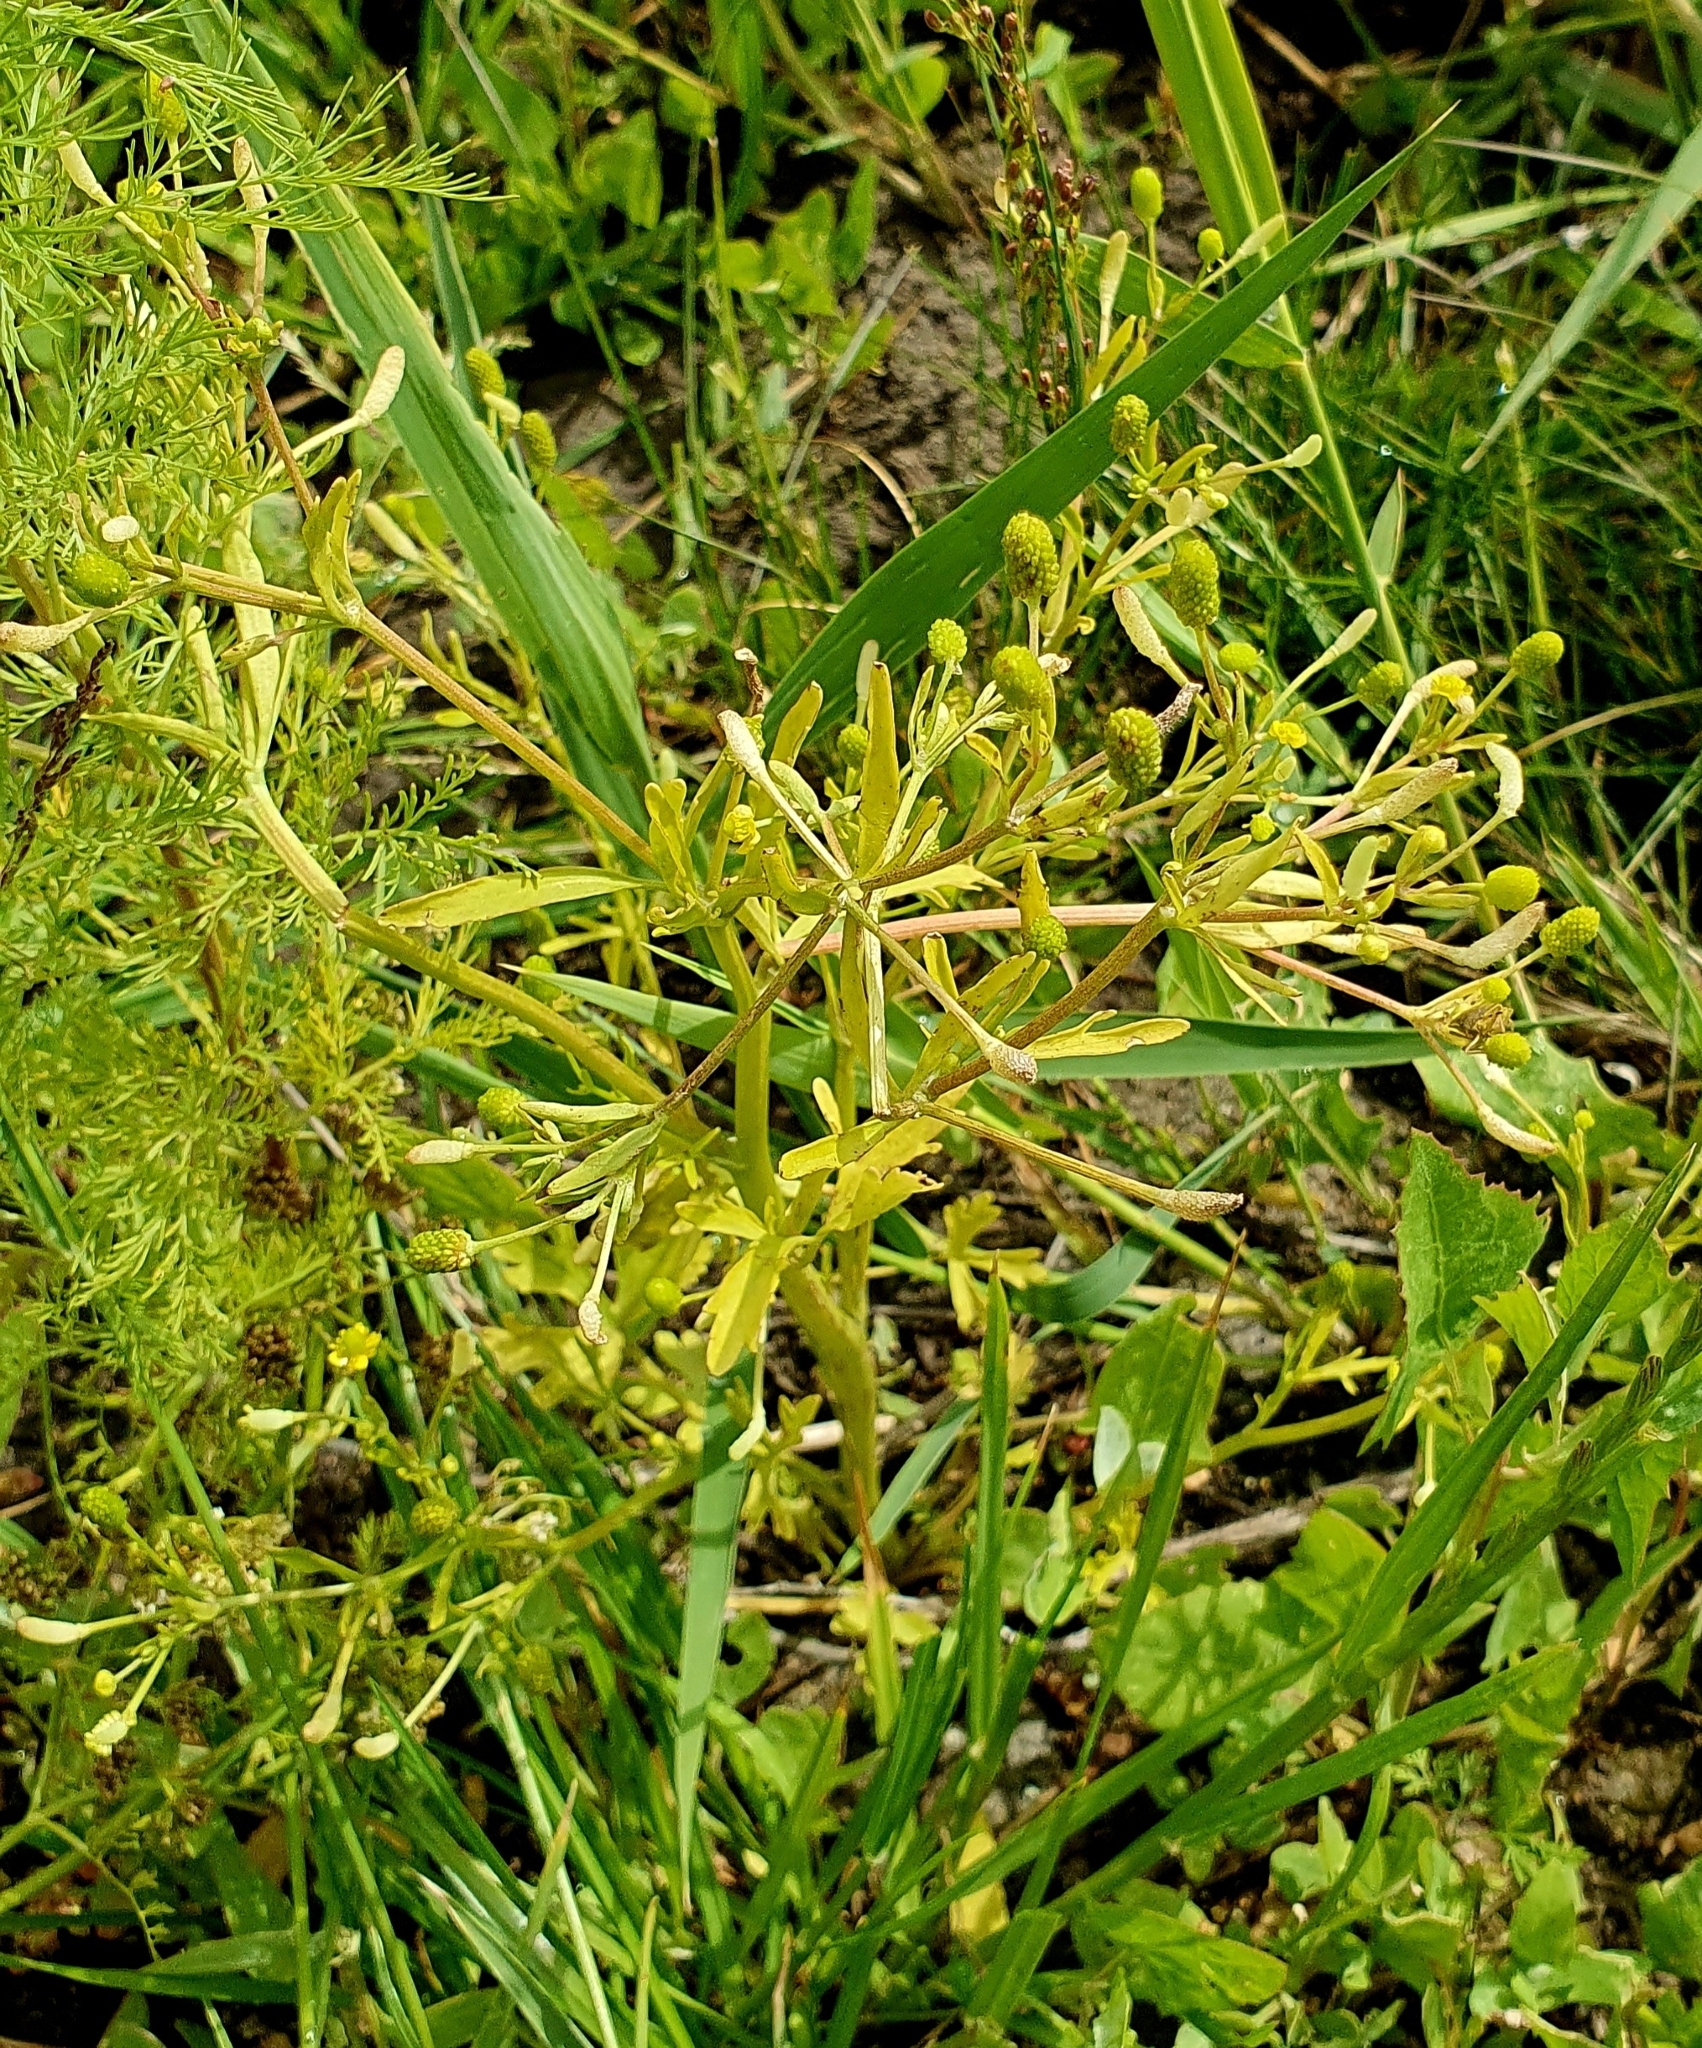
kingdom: Plantae
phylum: Tracheophyta
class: Magnoliopsida
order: Ranunculales
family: Ranunculaceae
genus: Ranunculus
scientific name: Ranunculus sceleratus
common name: Celery-leaved buttercup
